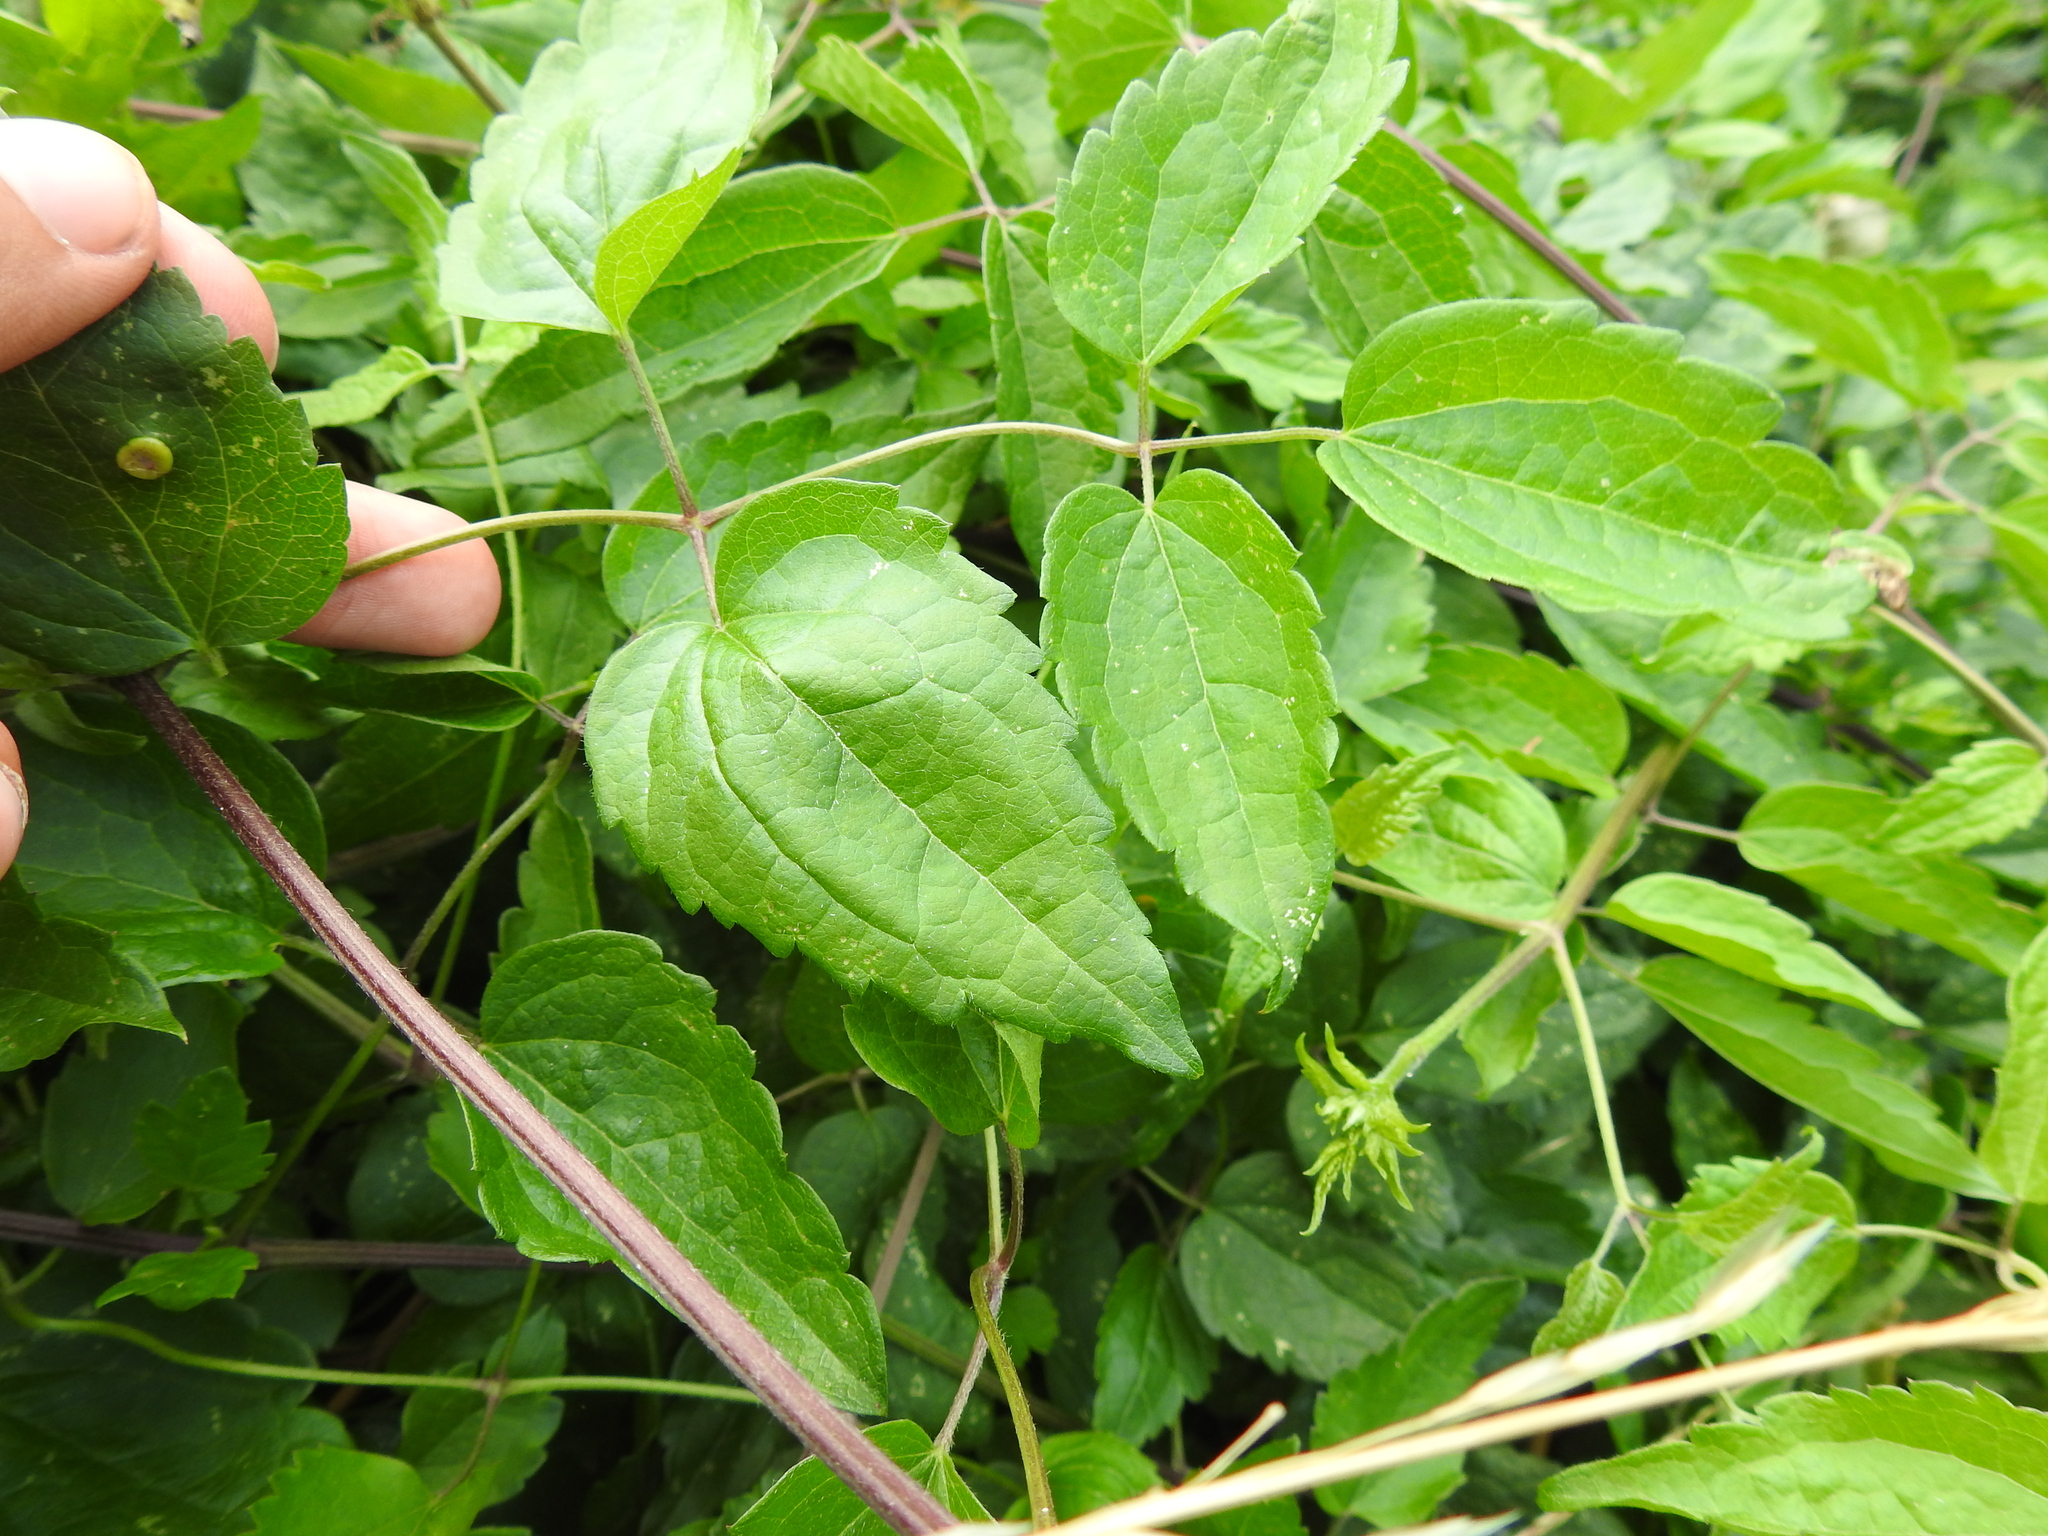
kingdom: Plantae
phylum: Tracheophyta
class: Magnoliopsida
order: Ranunculales
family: Ranunculaceae
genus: Clematis
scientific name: Clematis vitalba
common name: Evergreen clematis
